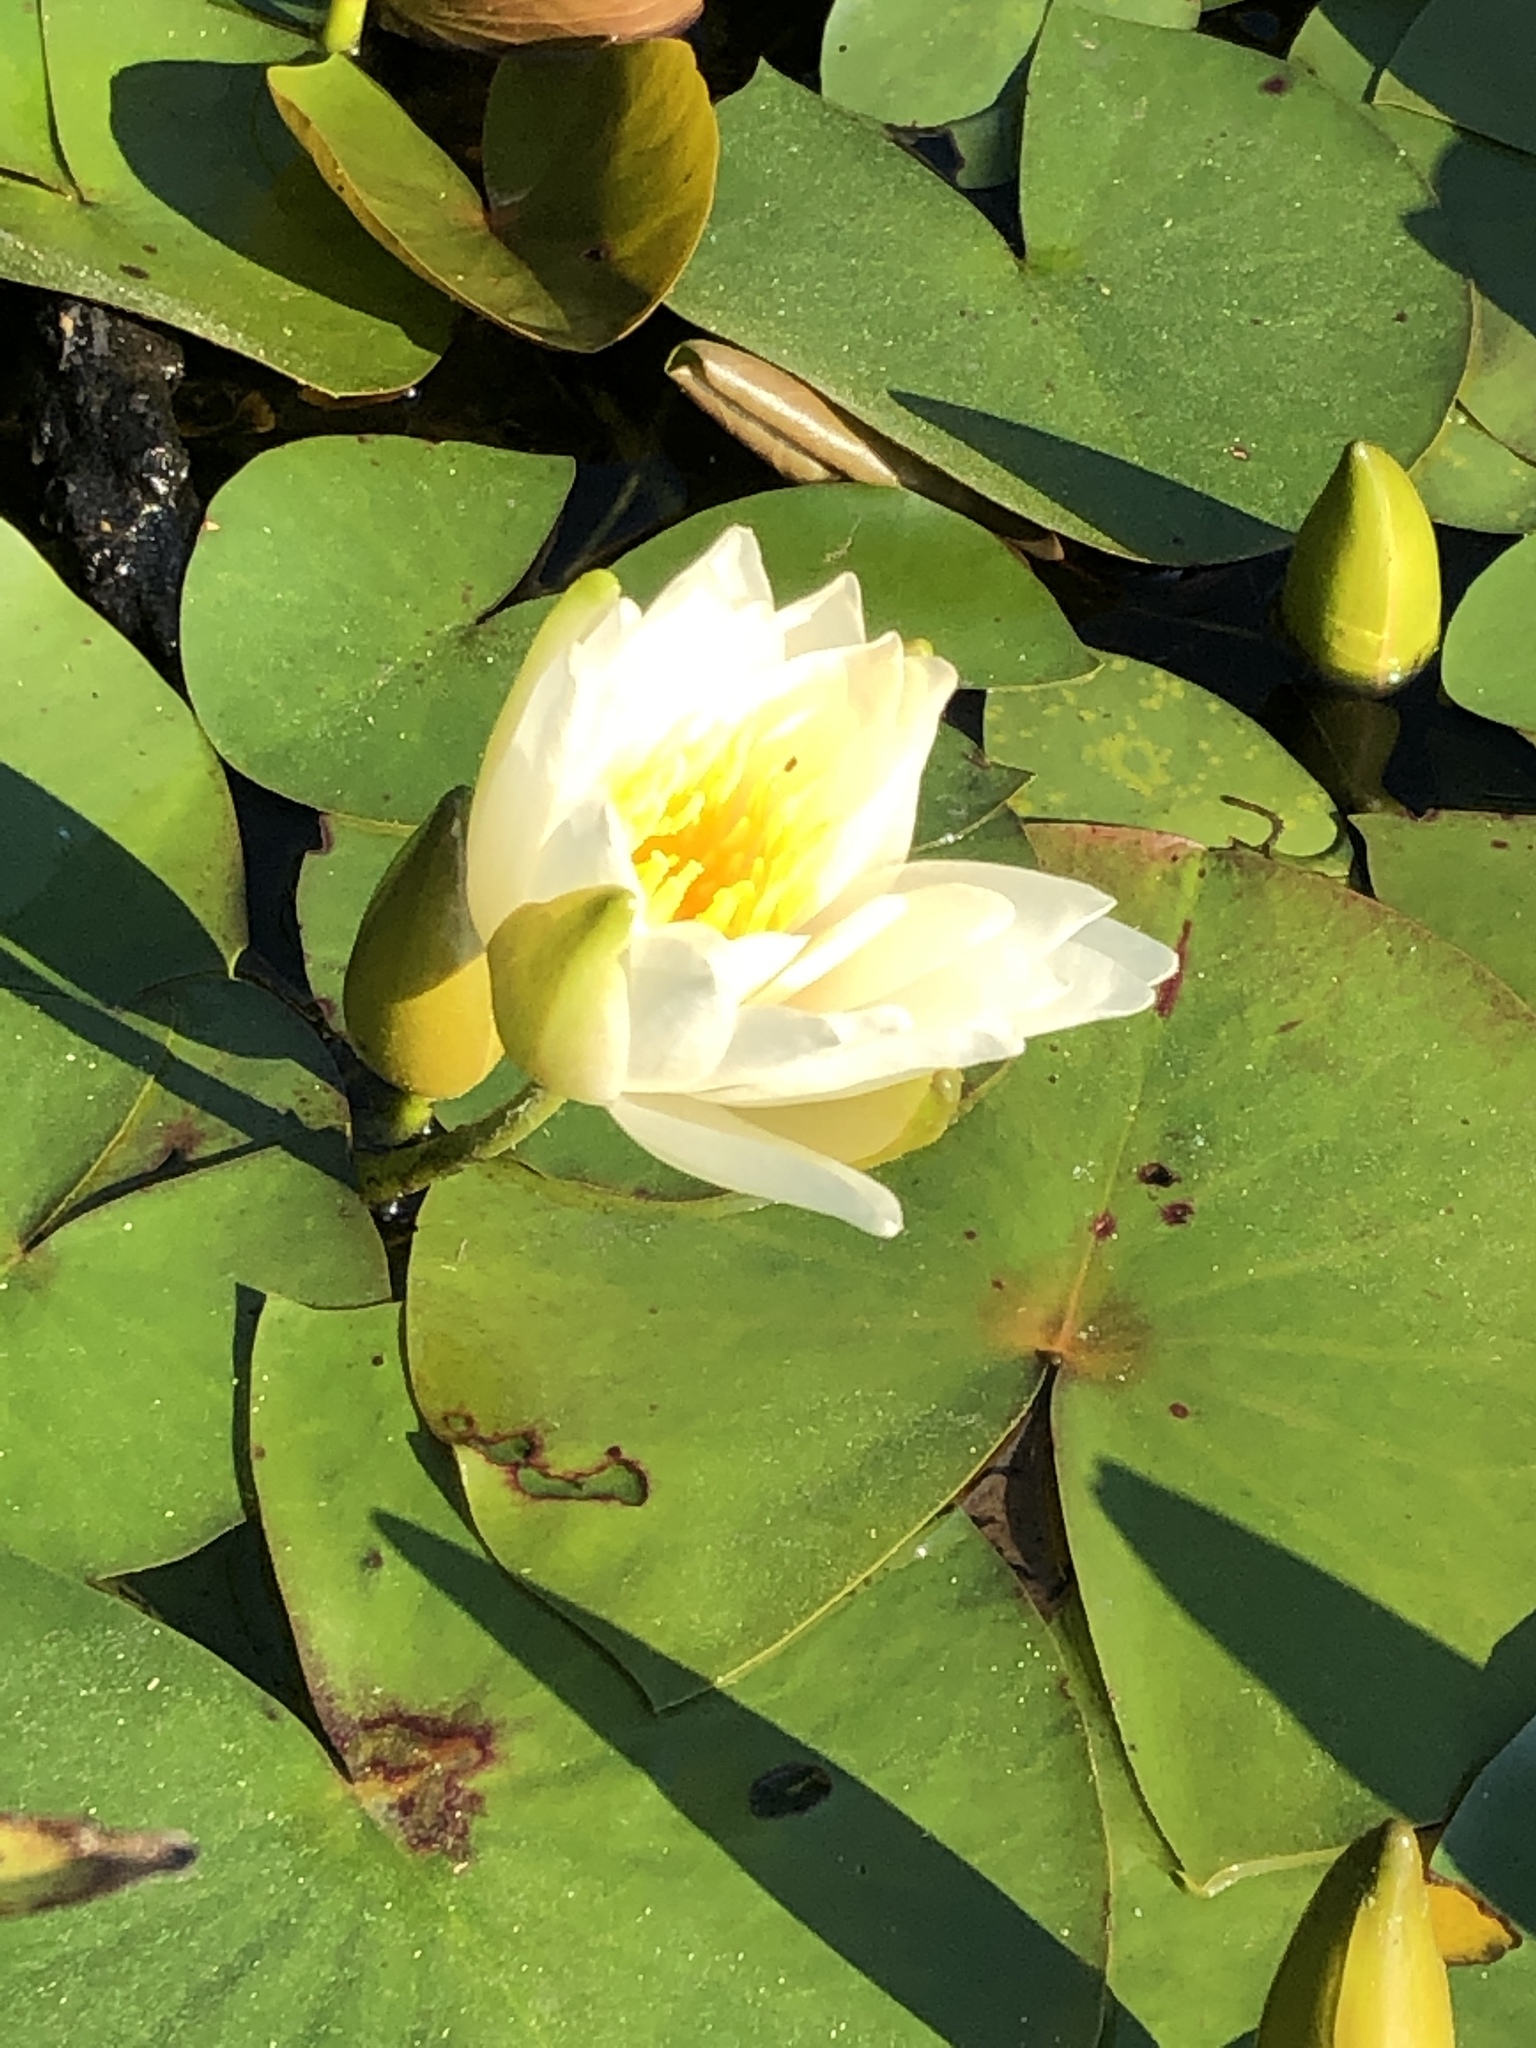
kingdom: Plantae
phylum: Tracheophyta
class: Magnoliopsida
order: Nymphaeales
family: Nymphaeaceae
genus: Nymphaea
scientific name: Nymphaea odorata
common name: Fragrant water-lily
